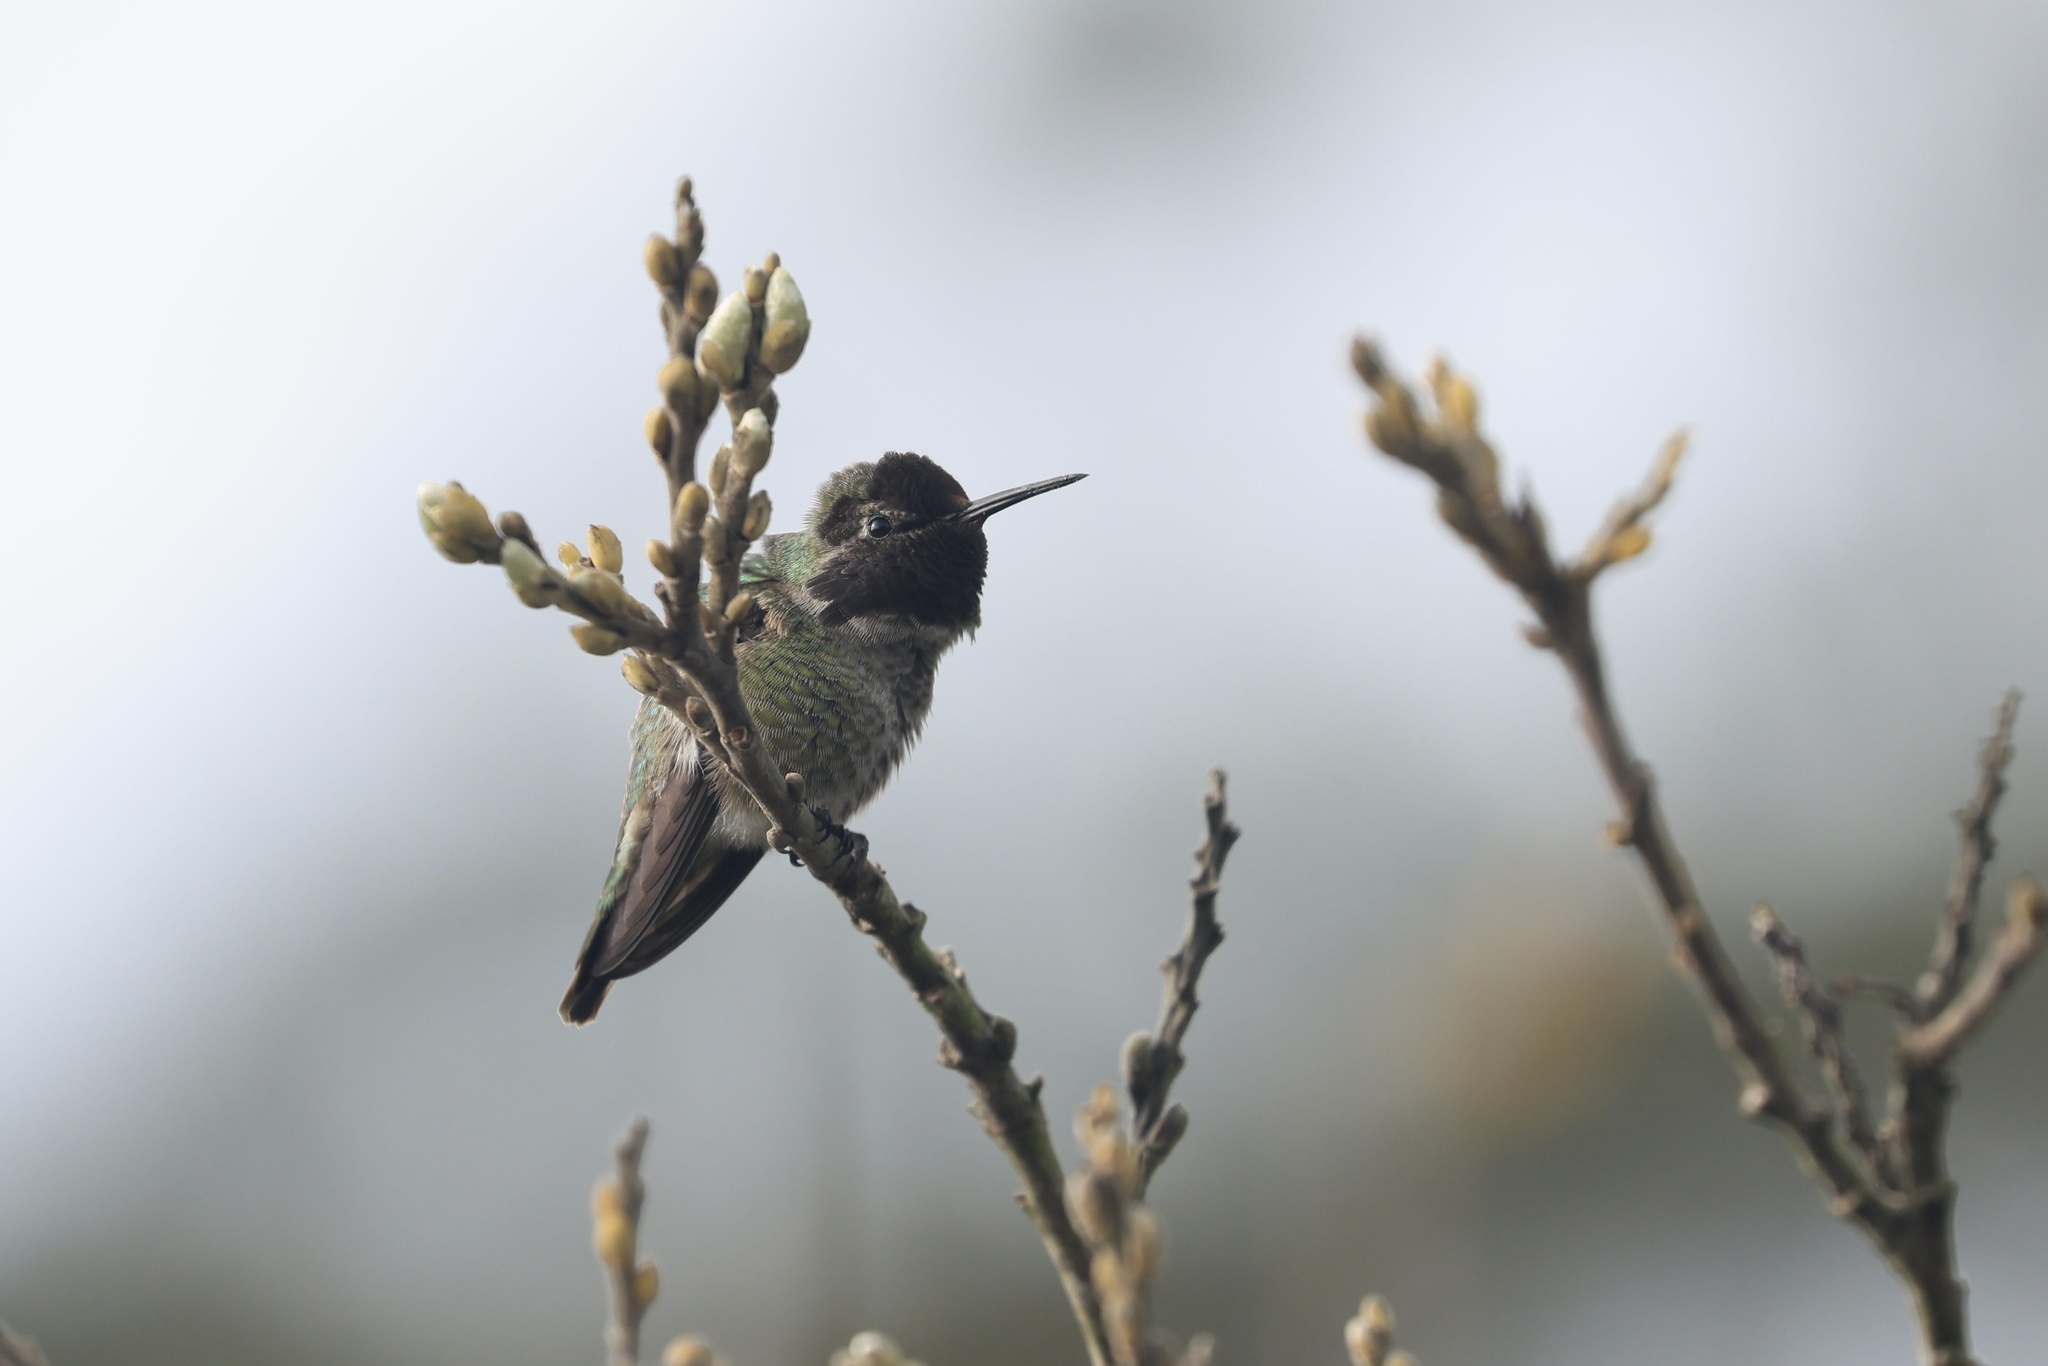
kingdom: Animalia
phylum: Chordata
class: Aves
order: Apodiformes
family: Trochilidae
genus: Calypte
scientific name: Calypte anna
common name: Anna's hummingbird
